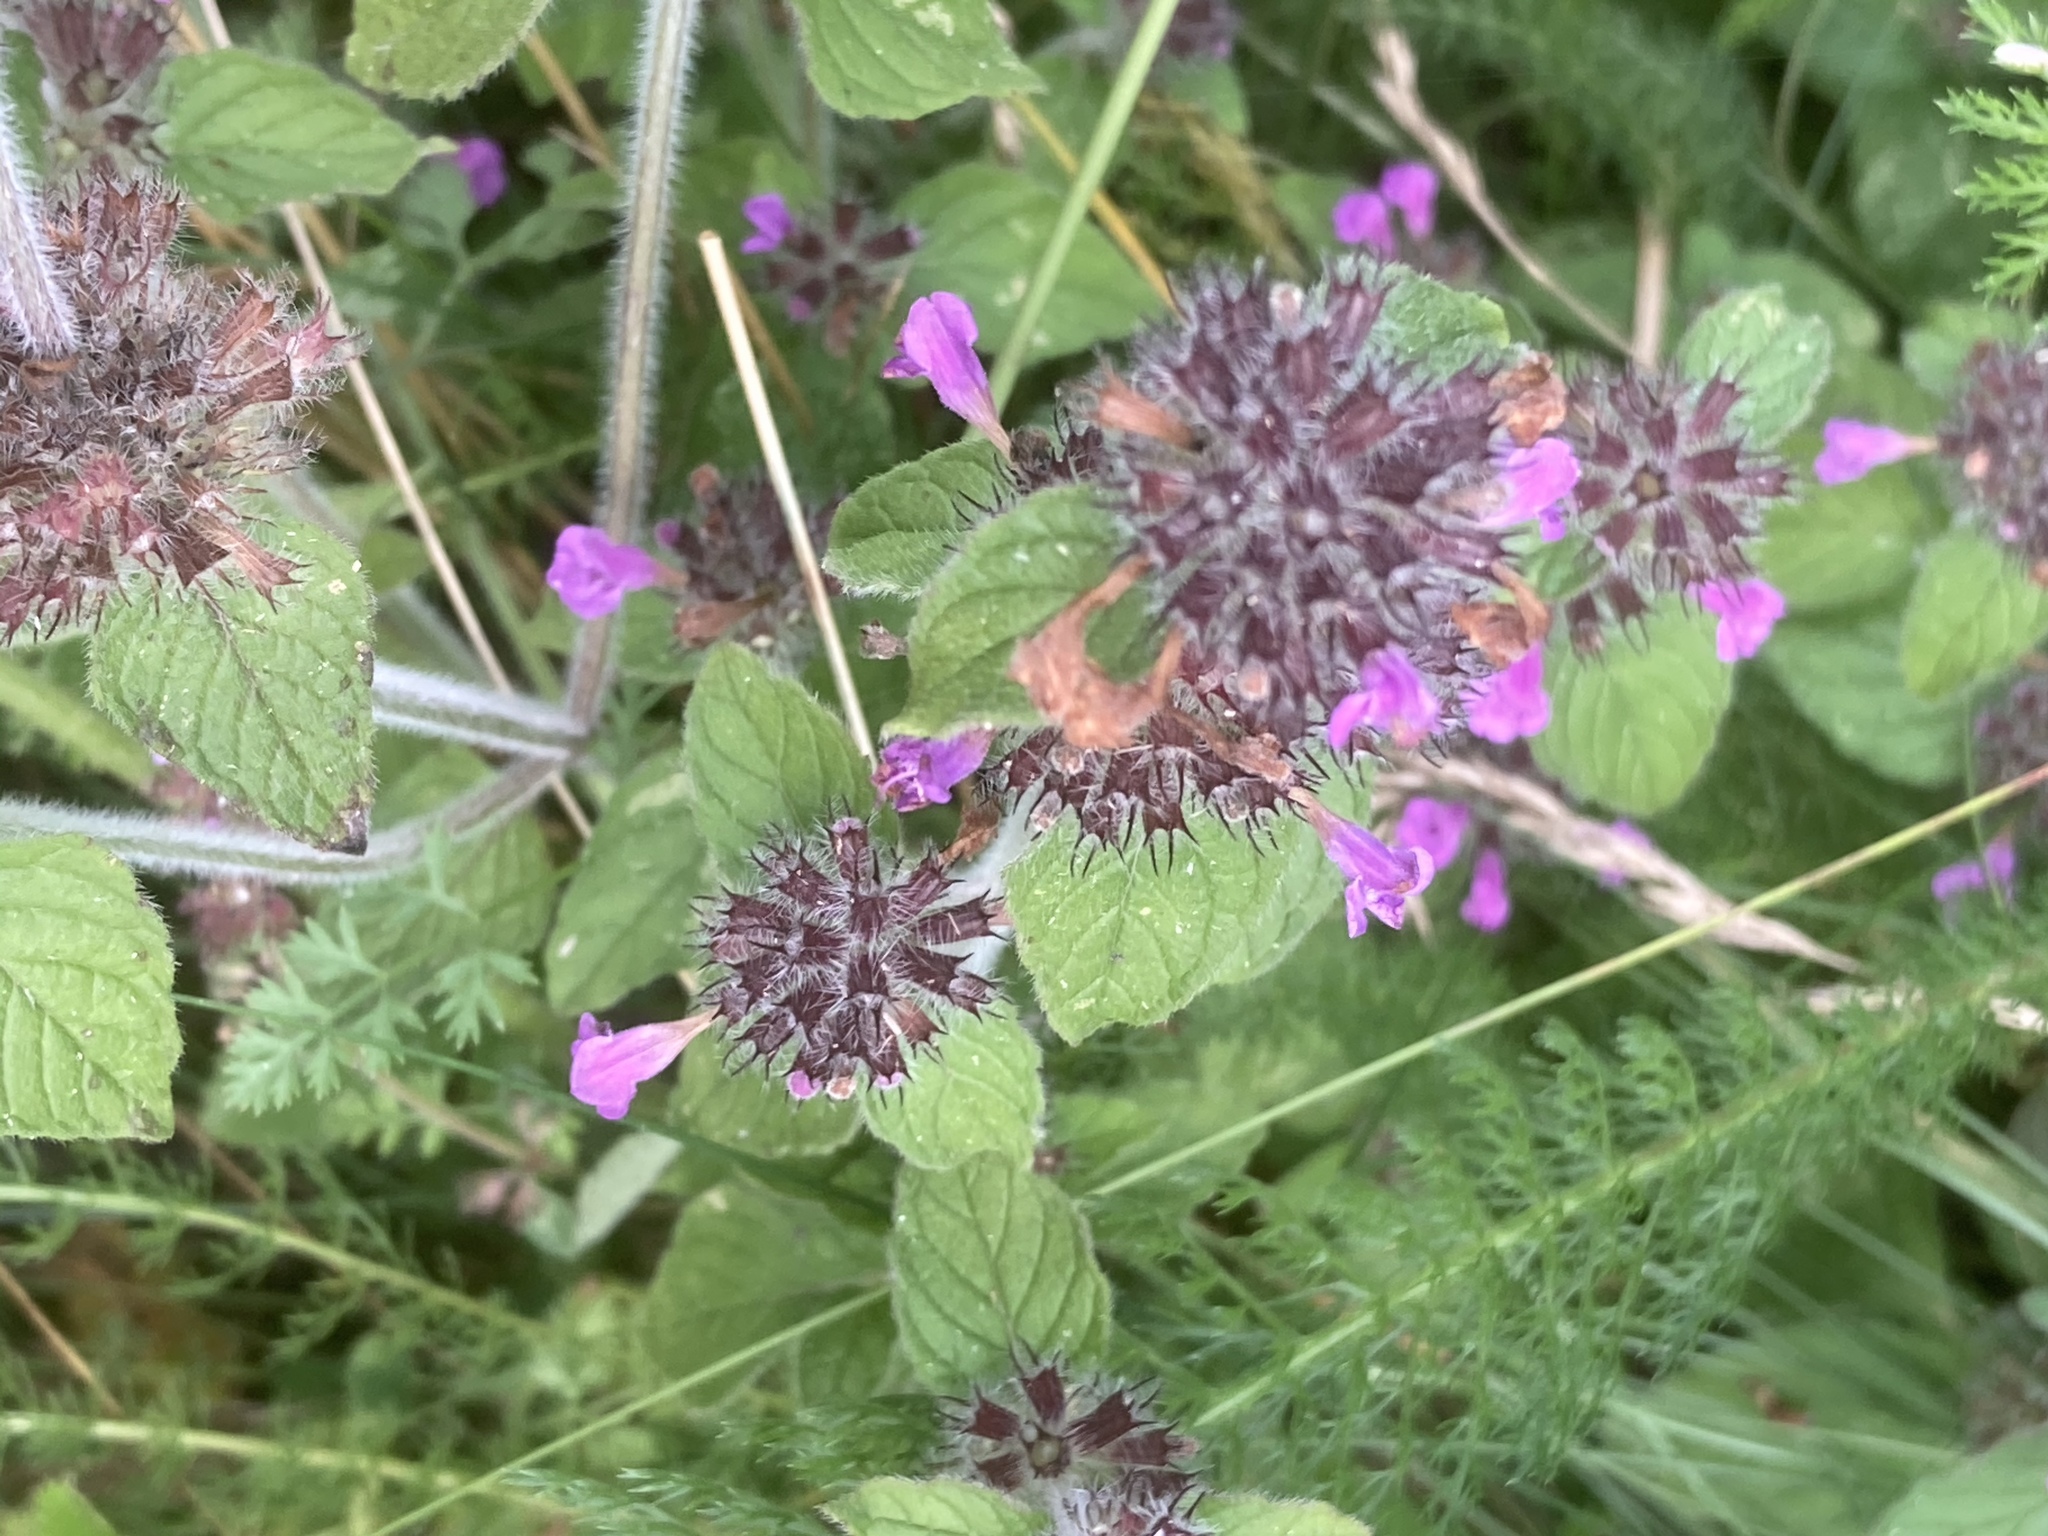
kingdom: Plantae
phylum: Tracheophyta
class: Magnoliopsida
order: Lamiales
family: Lamiaceae
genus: Clinopodium
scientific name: Clinopodium vulgare
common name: Wild basil
